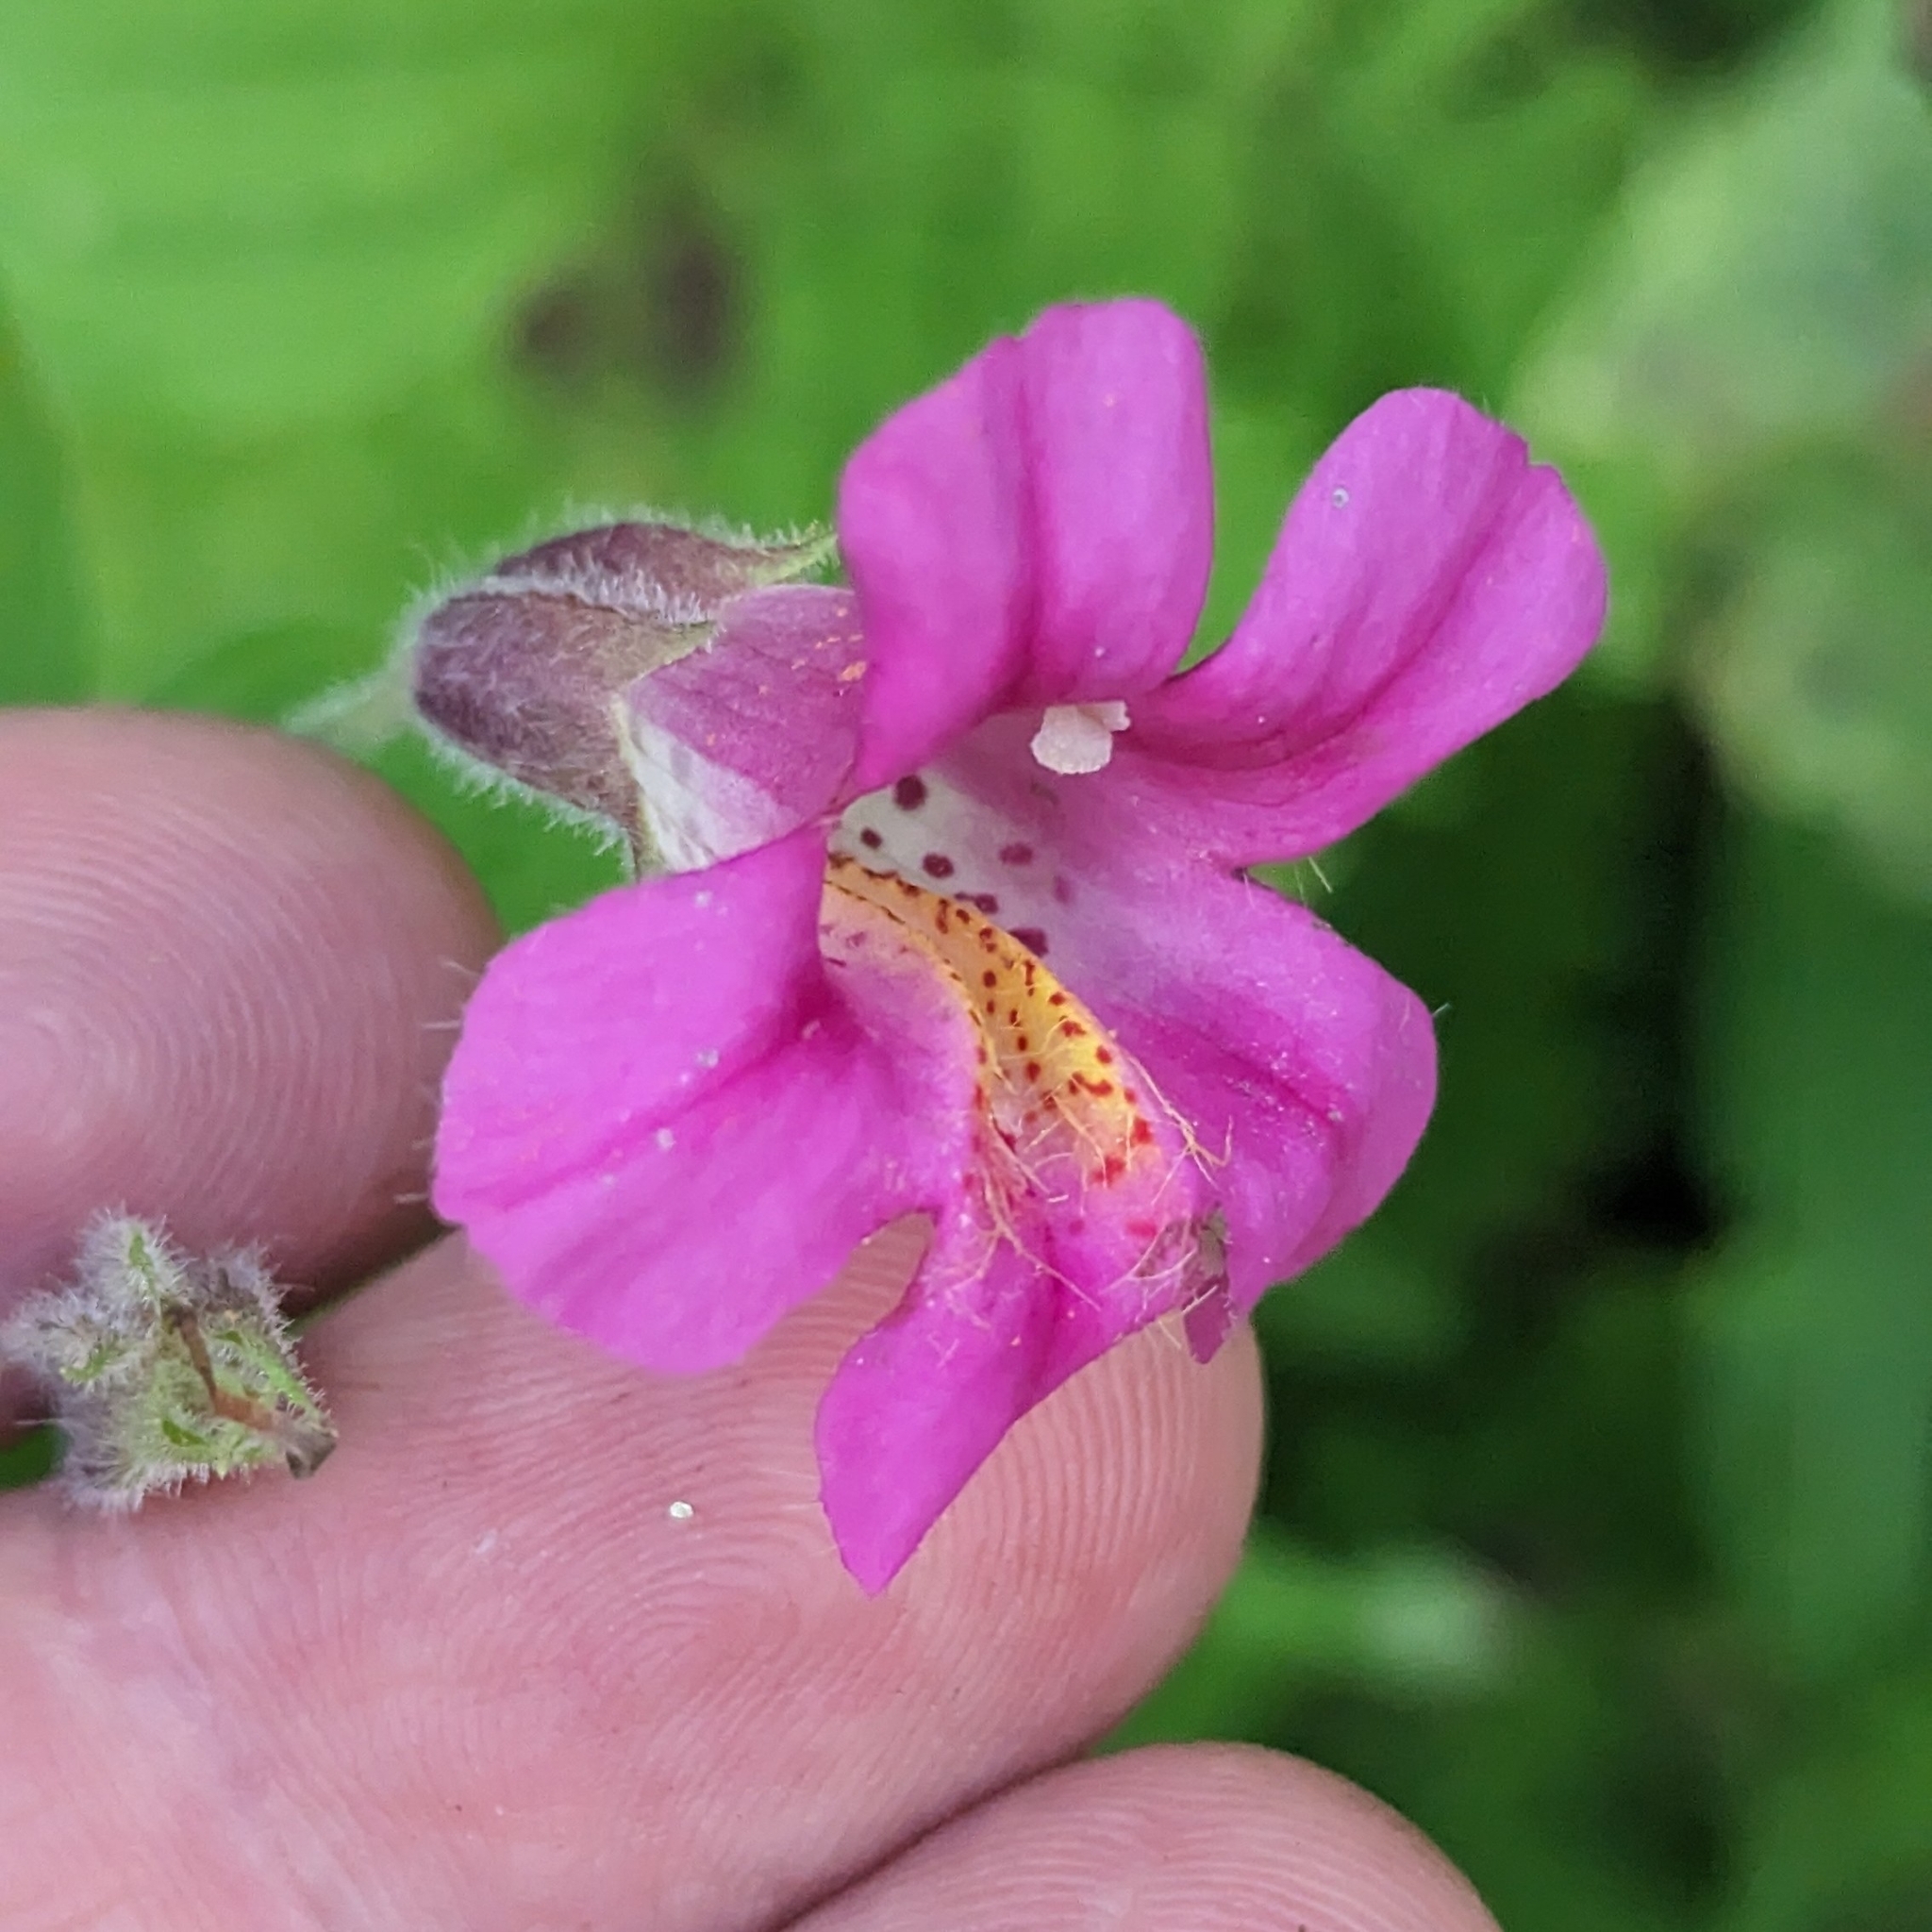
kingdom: Plantae
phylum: Tracheophyta
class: Magnoliopsida
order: Lamiales
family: Phrymaceae
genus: Erythranthe
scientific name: Erythranthe lewisii
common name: Lewis's monkey-flower
